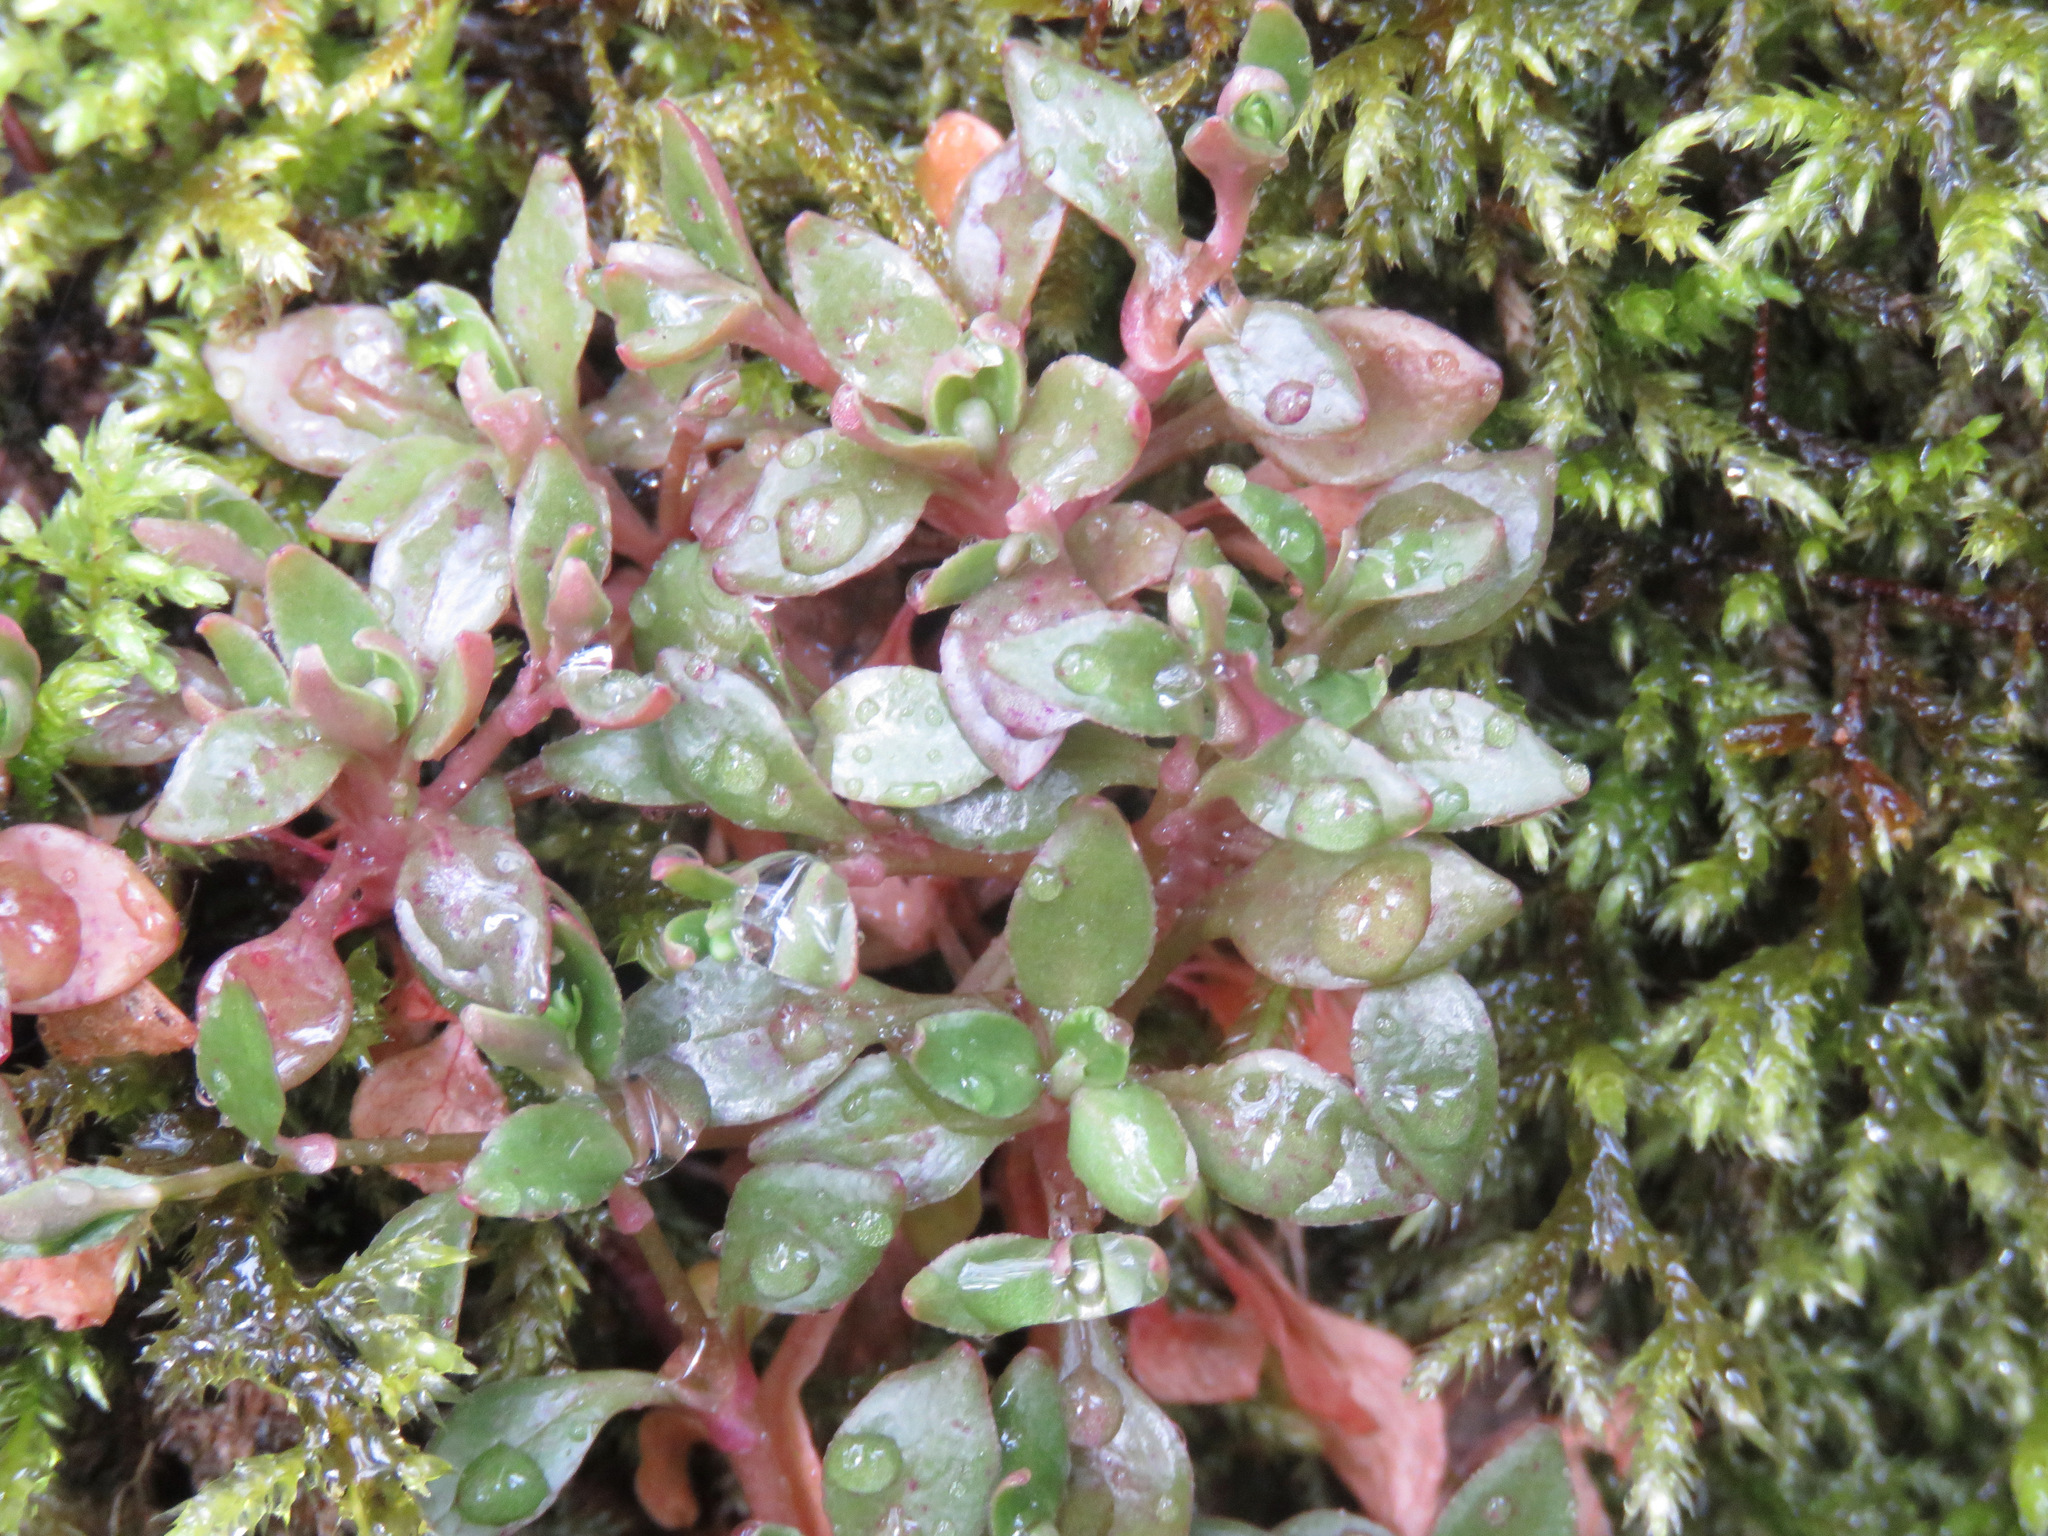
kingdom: Plantae
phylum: Tracheophyta
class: Magnoliopsida
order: Caryophyllales
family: Montiaceae
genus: Montia
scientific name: Montia parvifolia
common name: Small-leaved blinks
